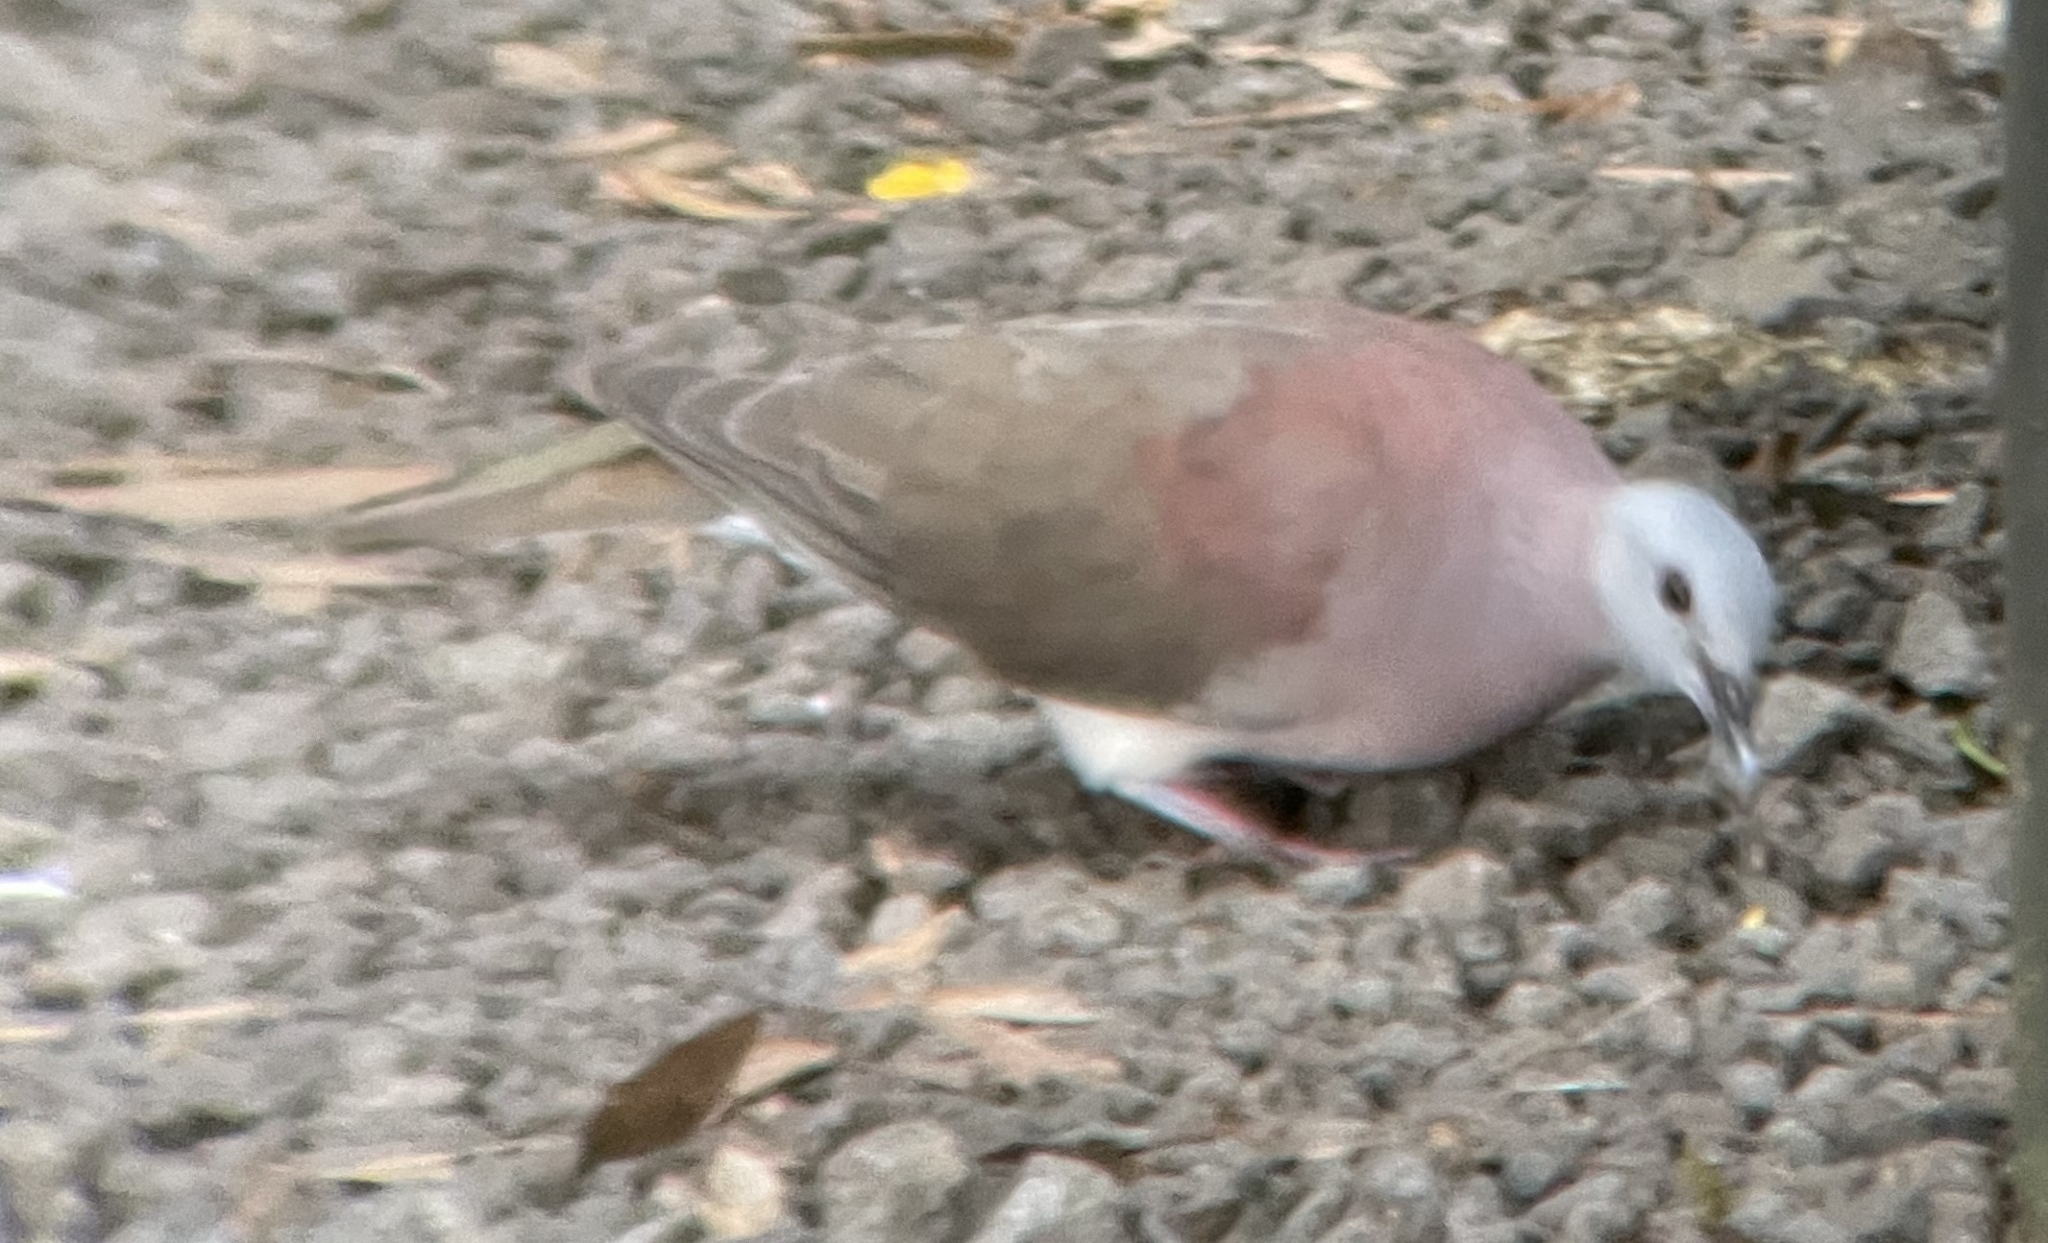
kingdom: Animalia
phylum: Chordata
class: Aves
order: Columbiformes
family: Columbidae
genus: Nesoenas
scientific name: Nesoenas picturatus
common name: Malagasy turtle dove
